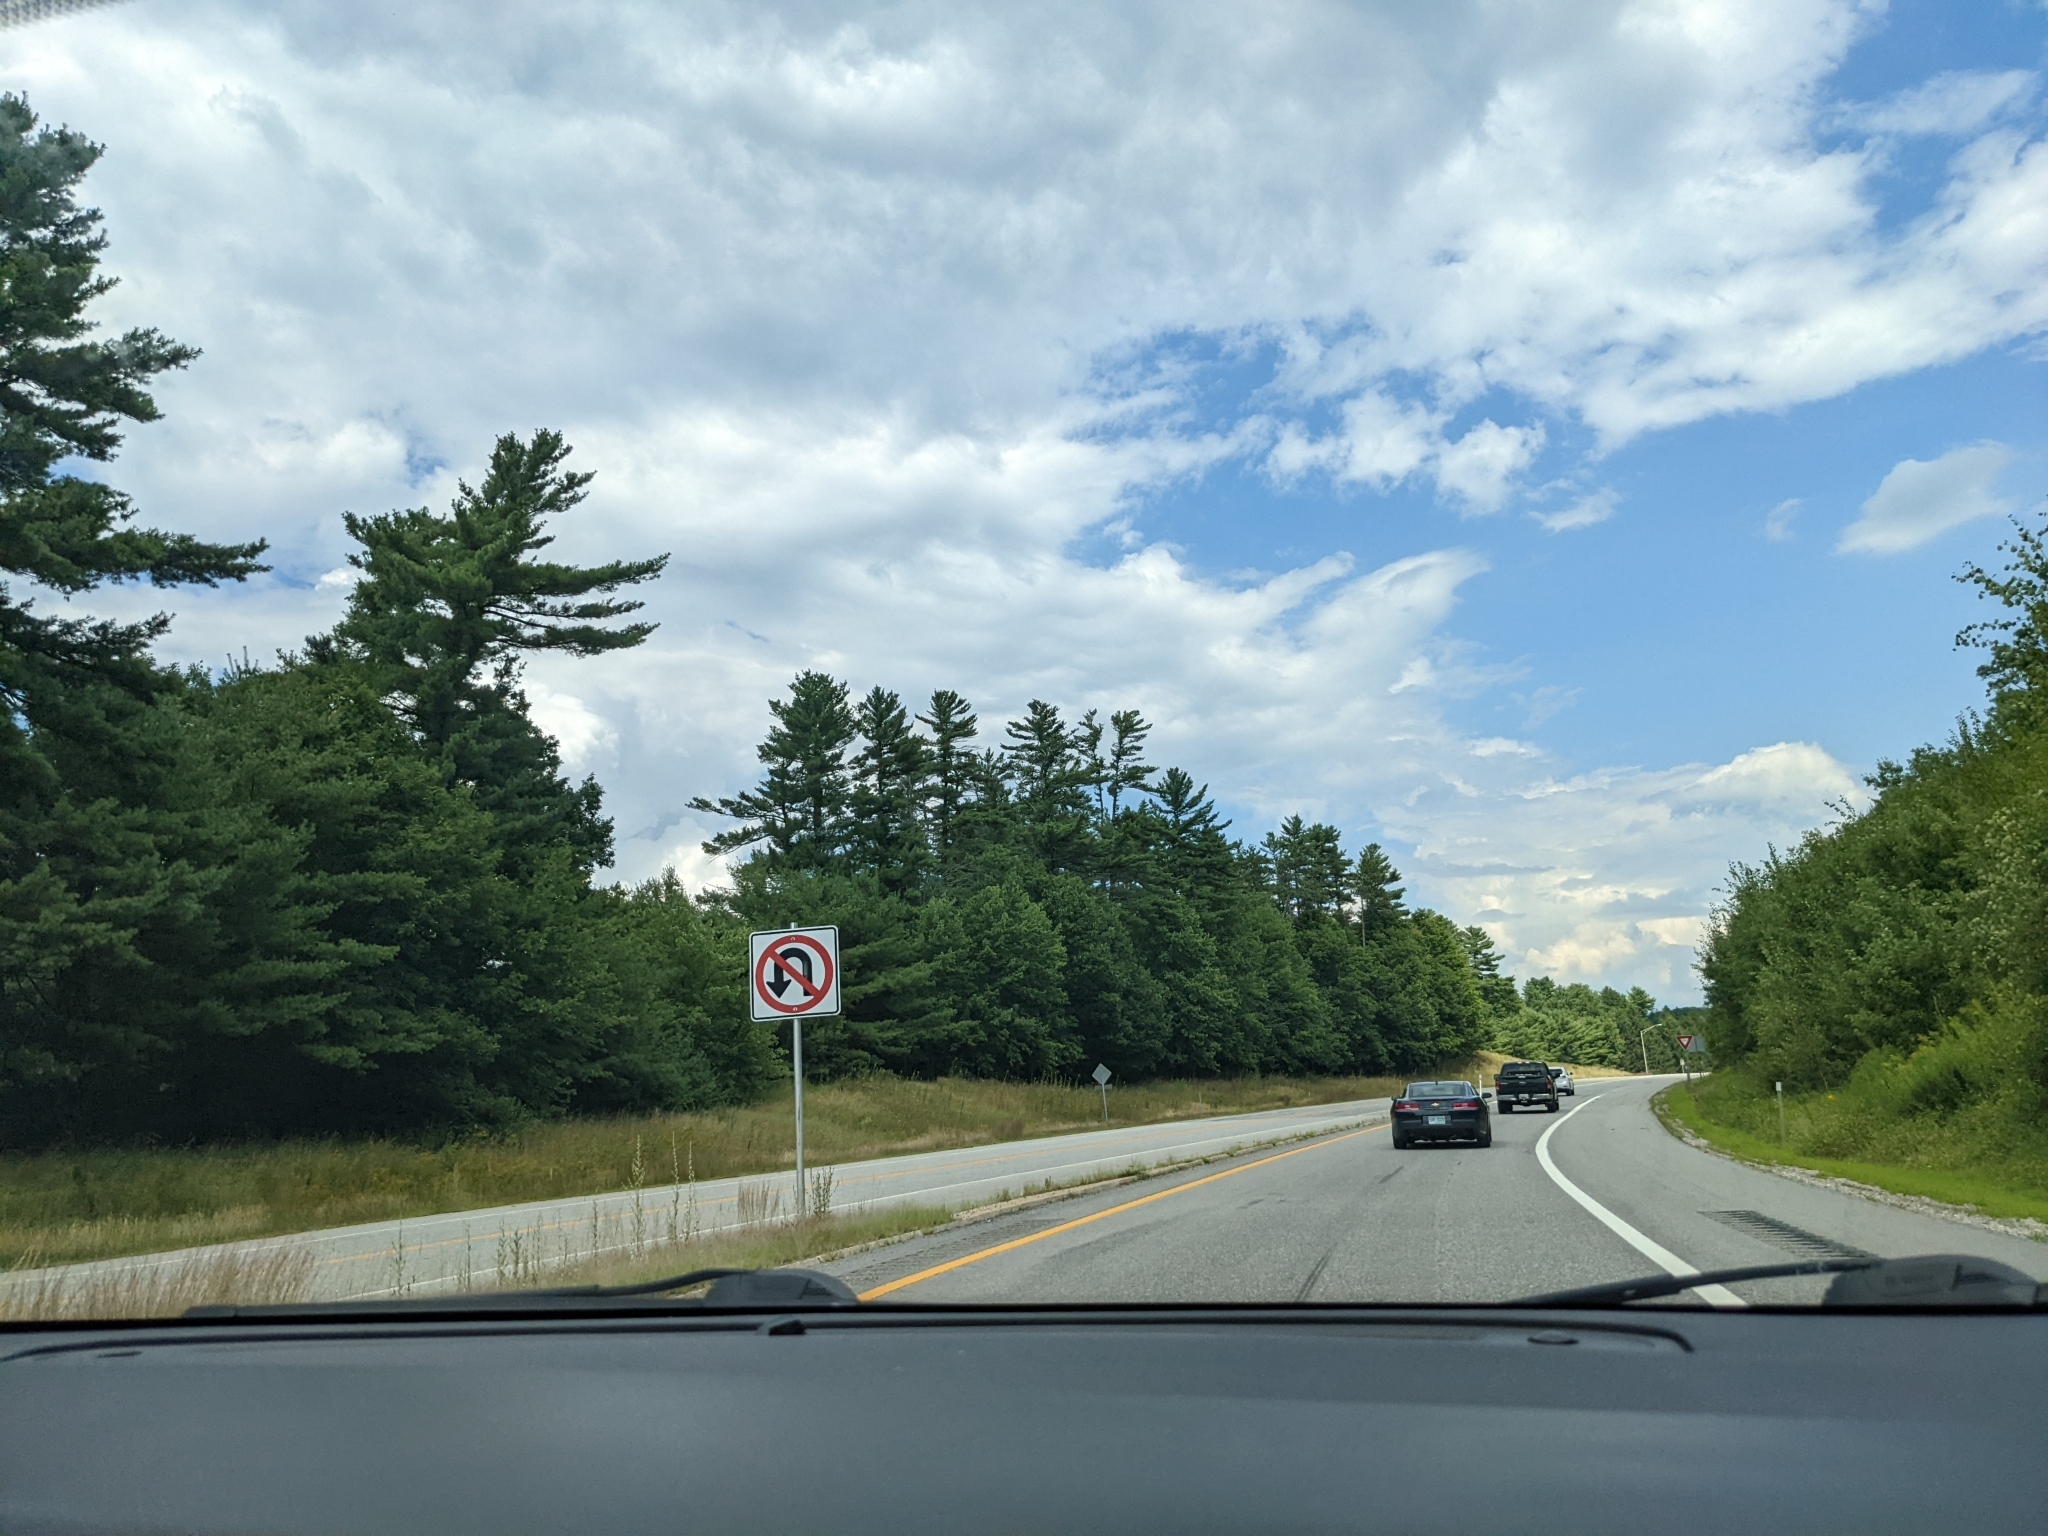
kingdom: Plantae
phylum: Tracheophyta
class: Pinopsida
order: Pinales
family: Pinaceae
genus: Pinus
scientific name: Pinus strobus
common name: Weymouth pine
